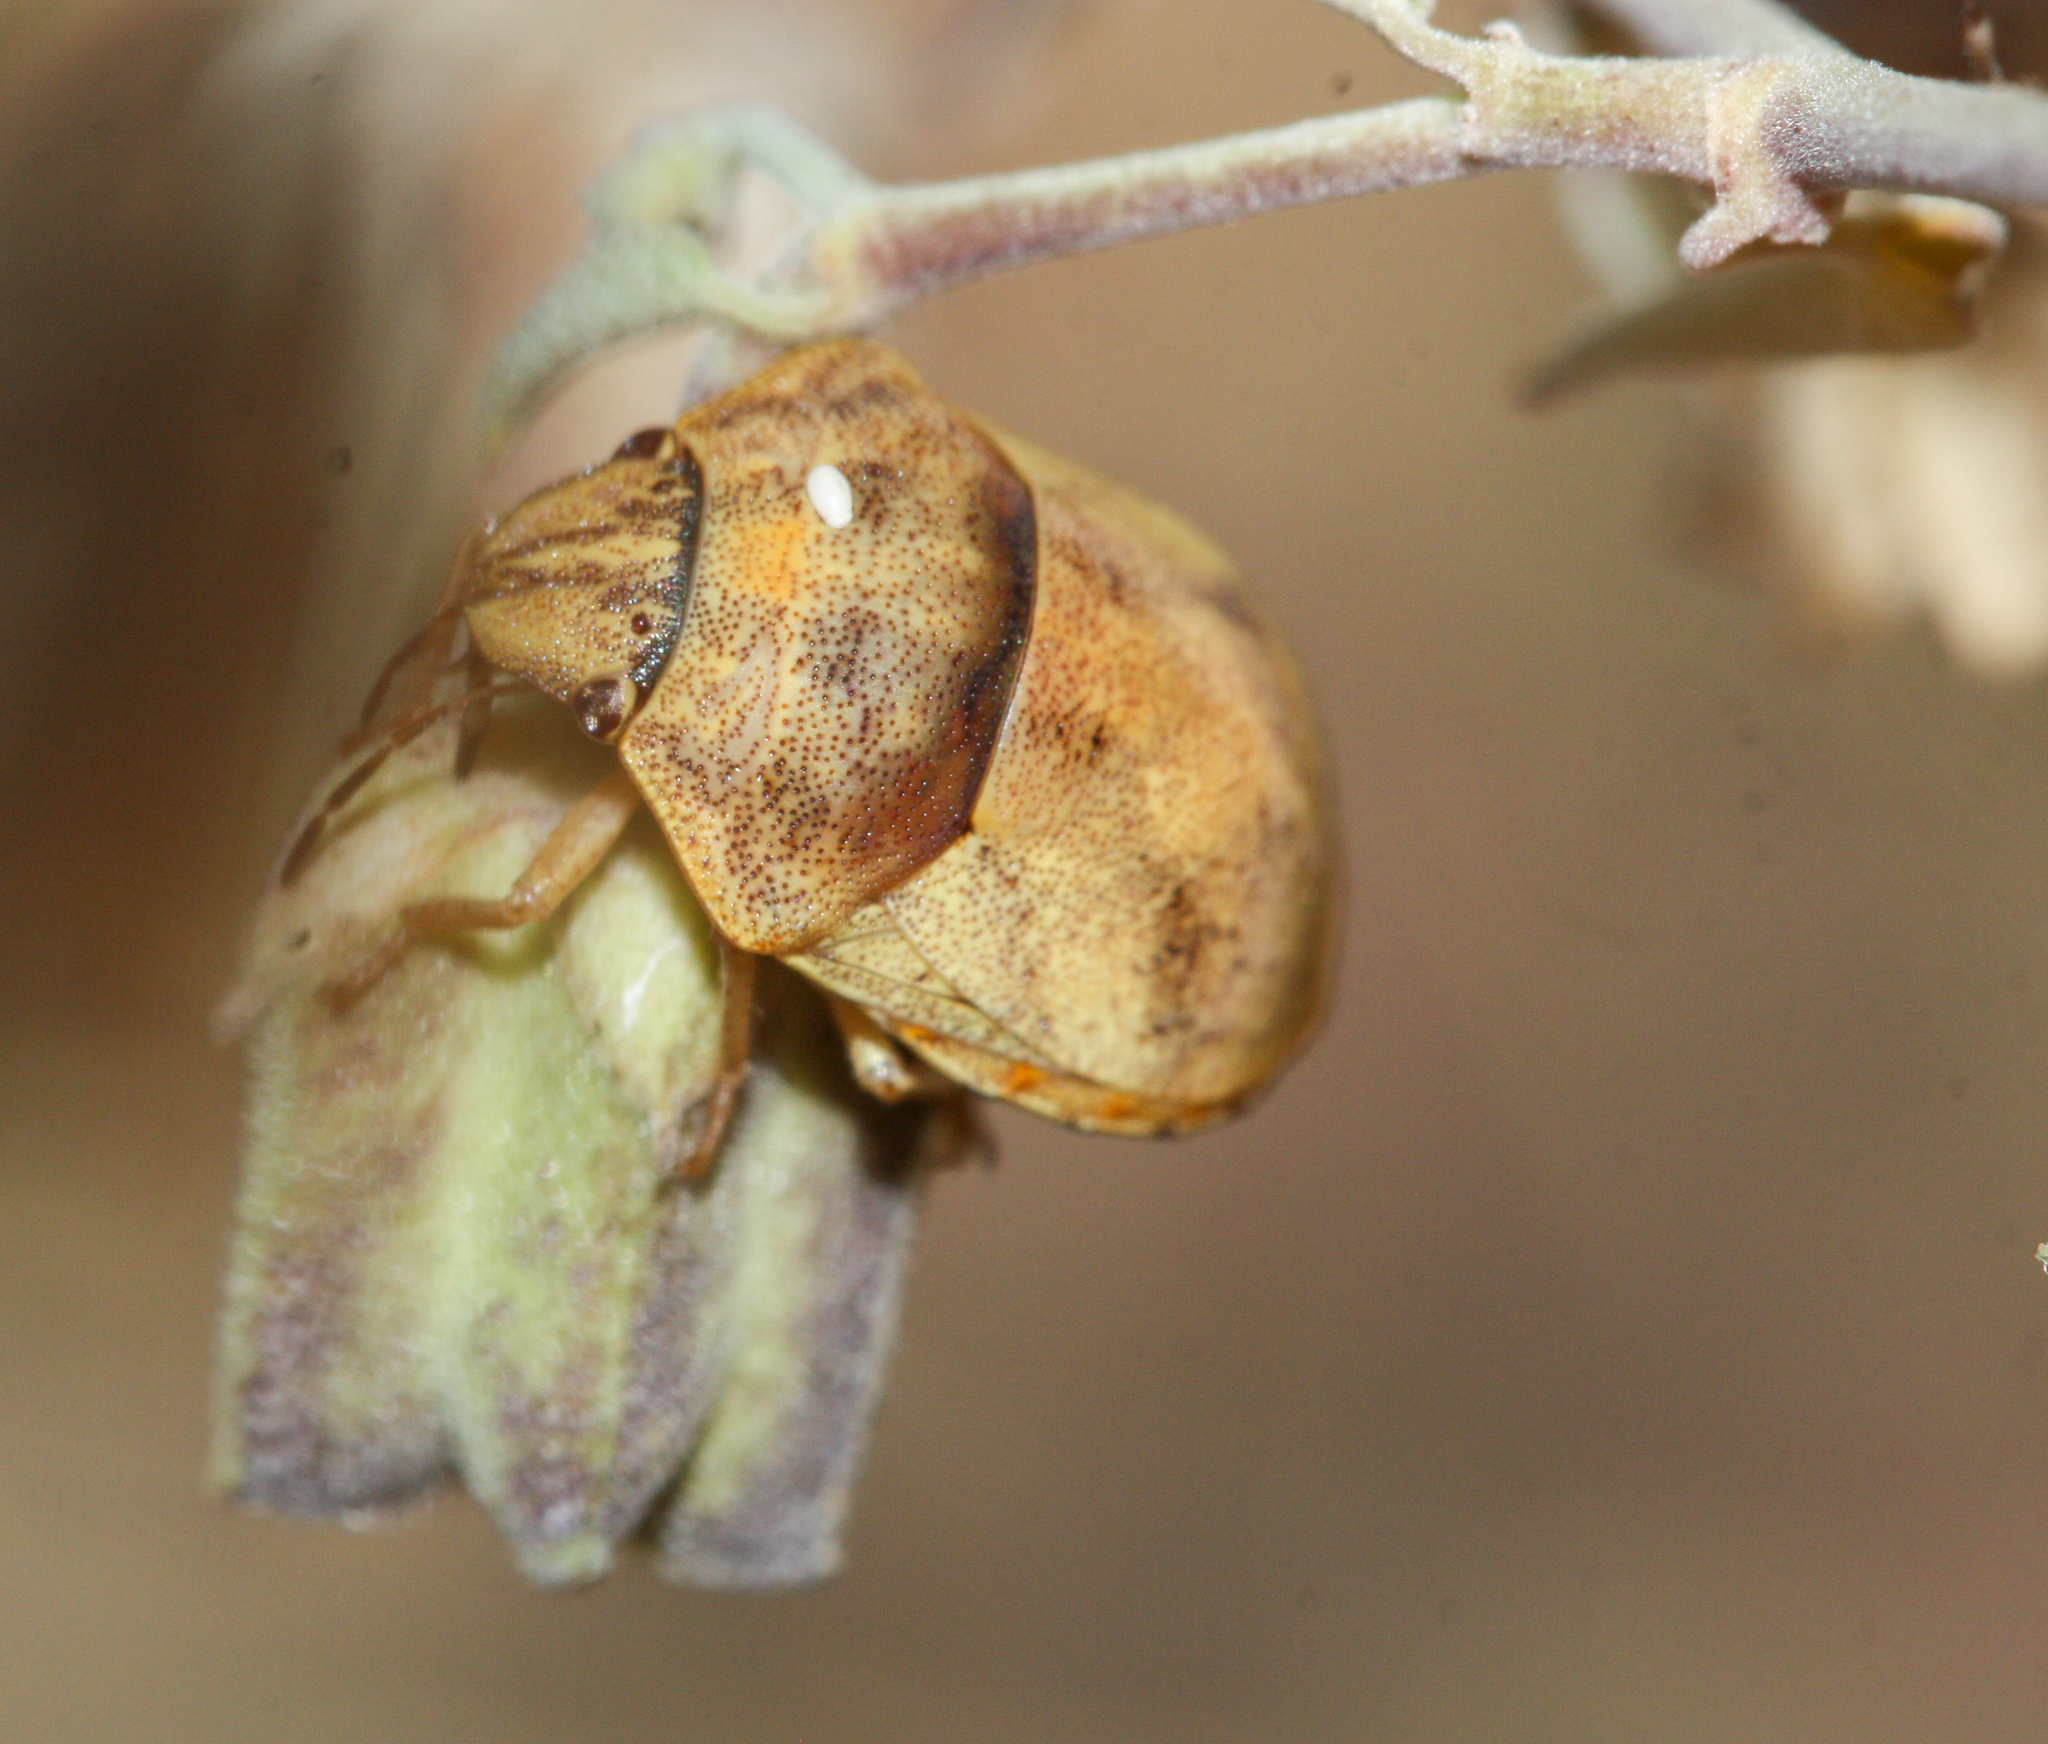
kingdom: Animalia
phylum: Arthropoda
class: Insecta
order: Hemiptera
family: Scutelleridae
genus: Sphyrocoris
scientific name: Sphyrocoris obliquus
